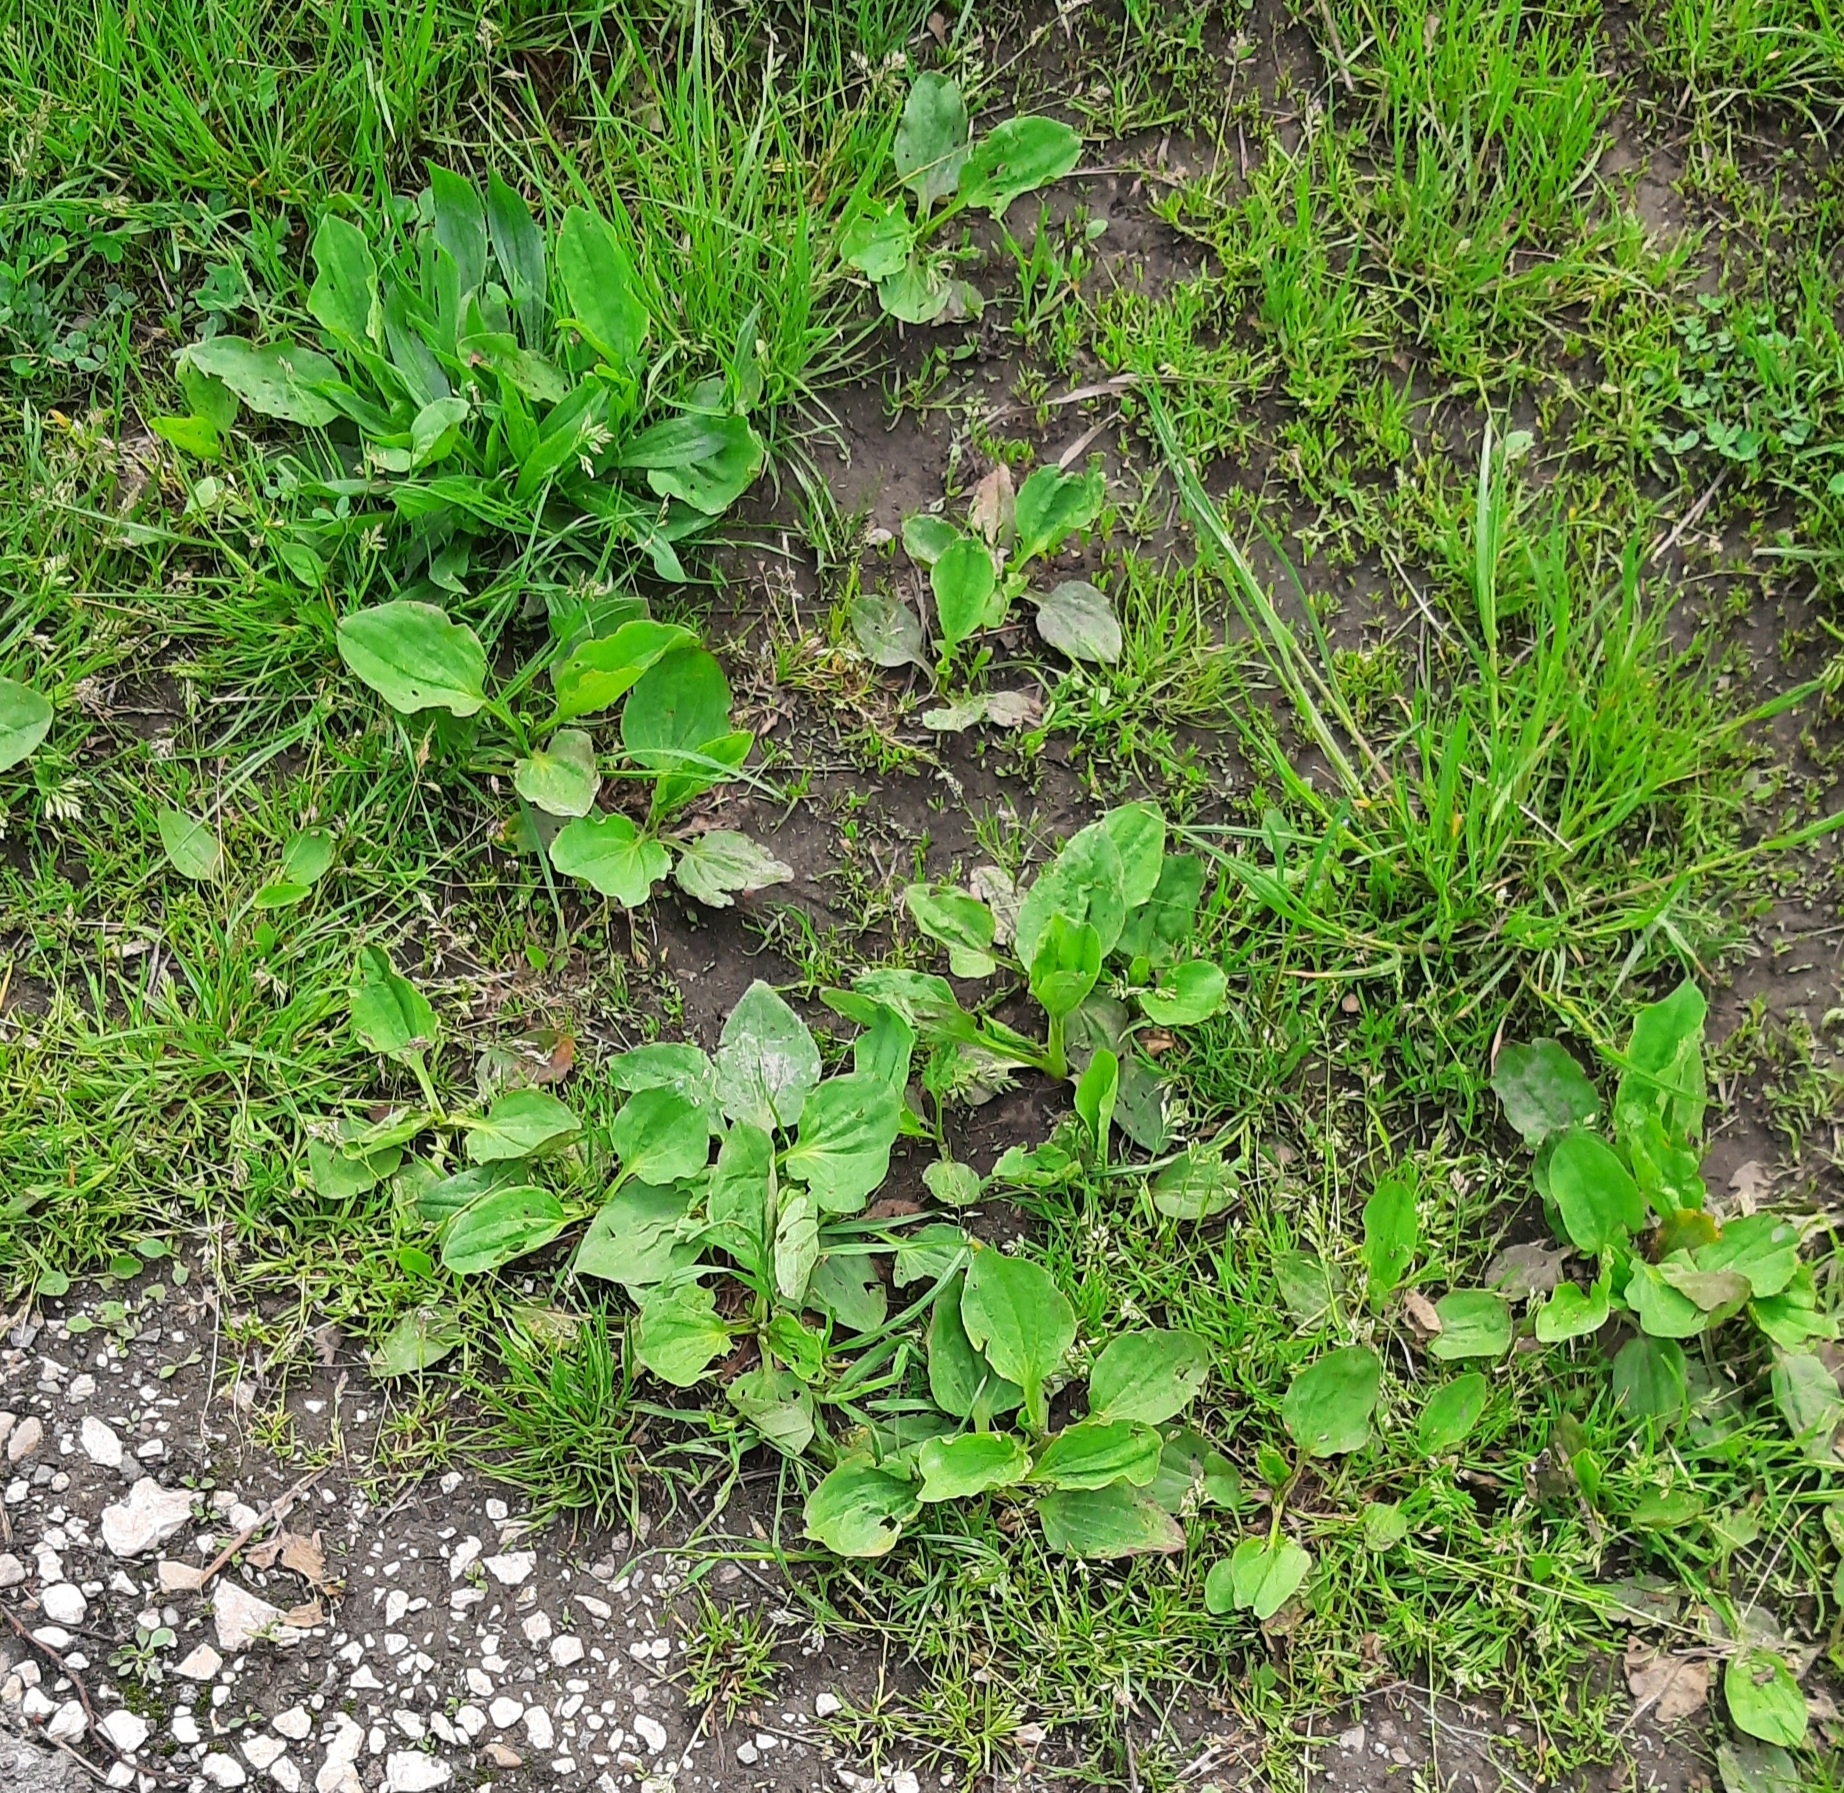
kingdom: Plantae
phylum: Tracheophyta
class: Magnoliopsida
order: Lamiales
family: Plantaginaceae
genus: Plantago
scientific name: Plantago major
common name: Common plantain
